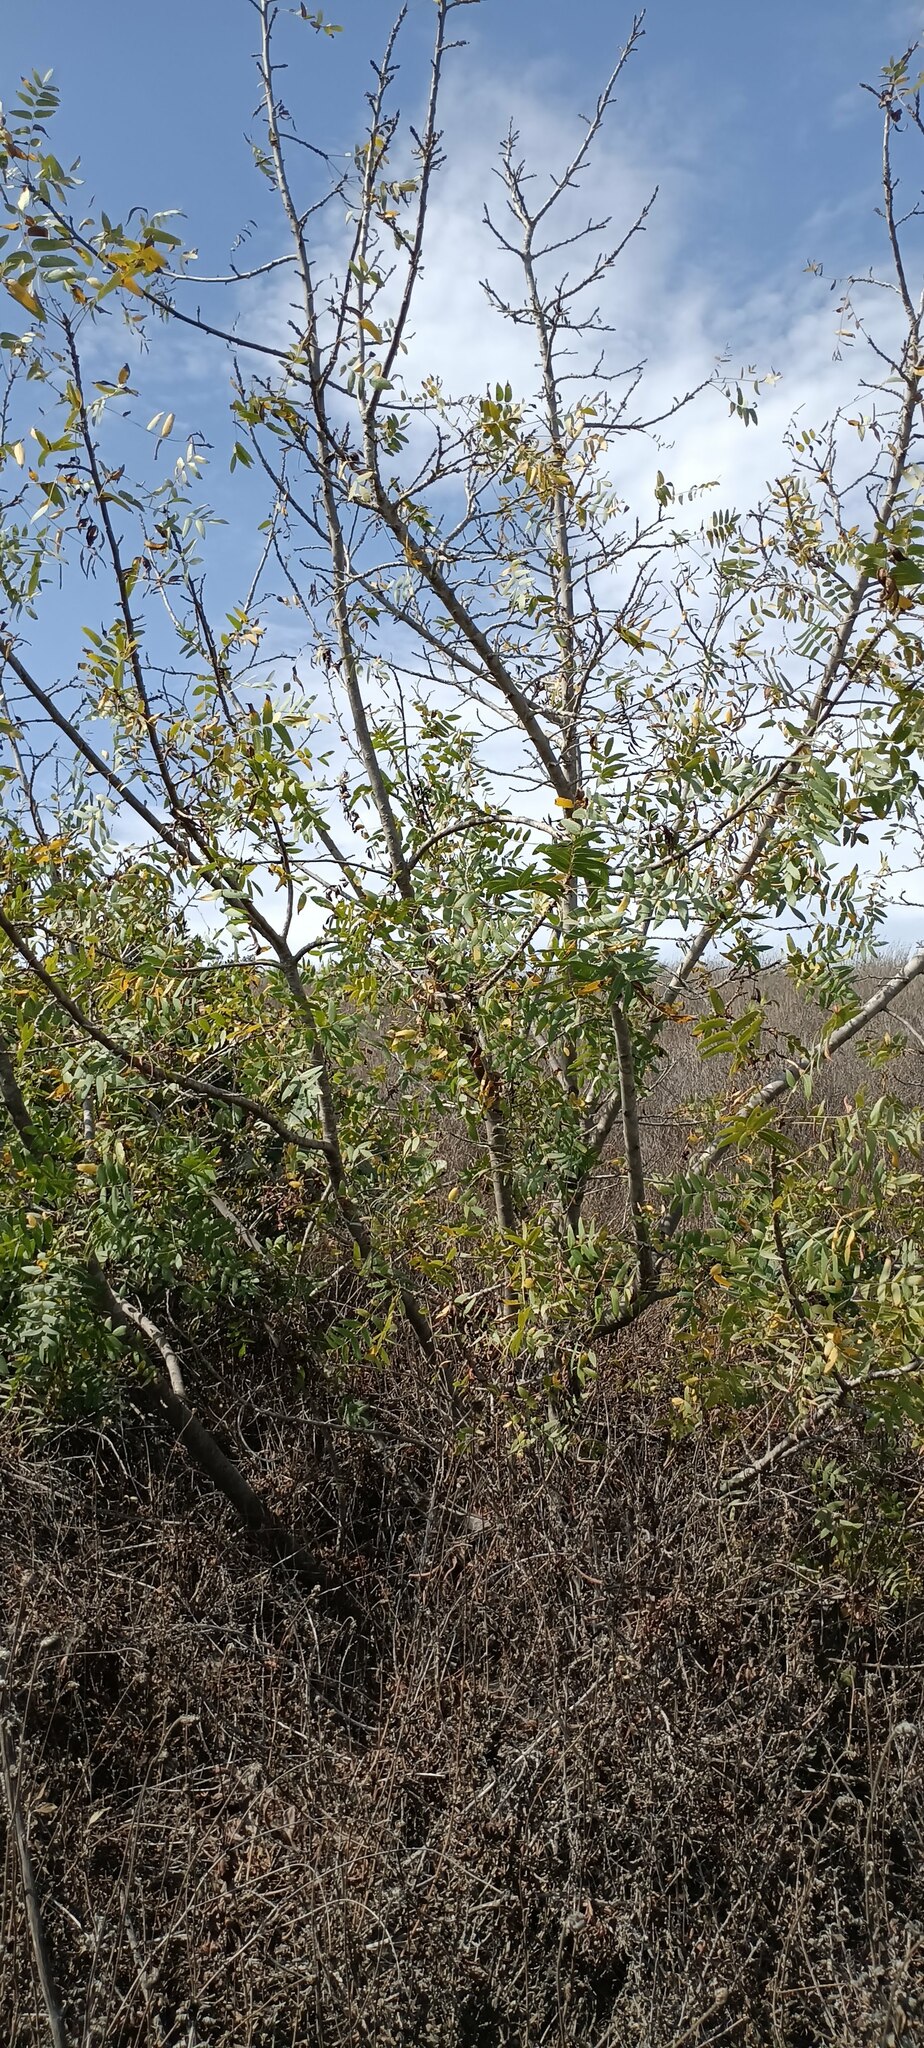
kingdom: Plantae
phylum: Tracheophyta
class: Magnoliopsida
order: Fagales
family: Juglandaceae
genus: Juglans
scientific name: Juglans californica
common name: Southern california black walnut
